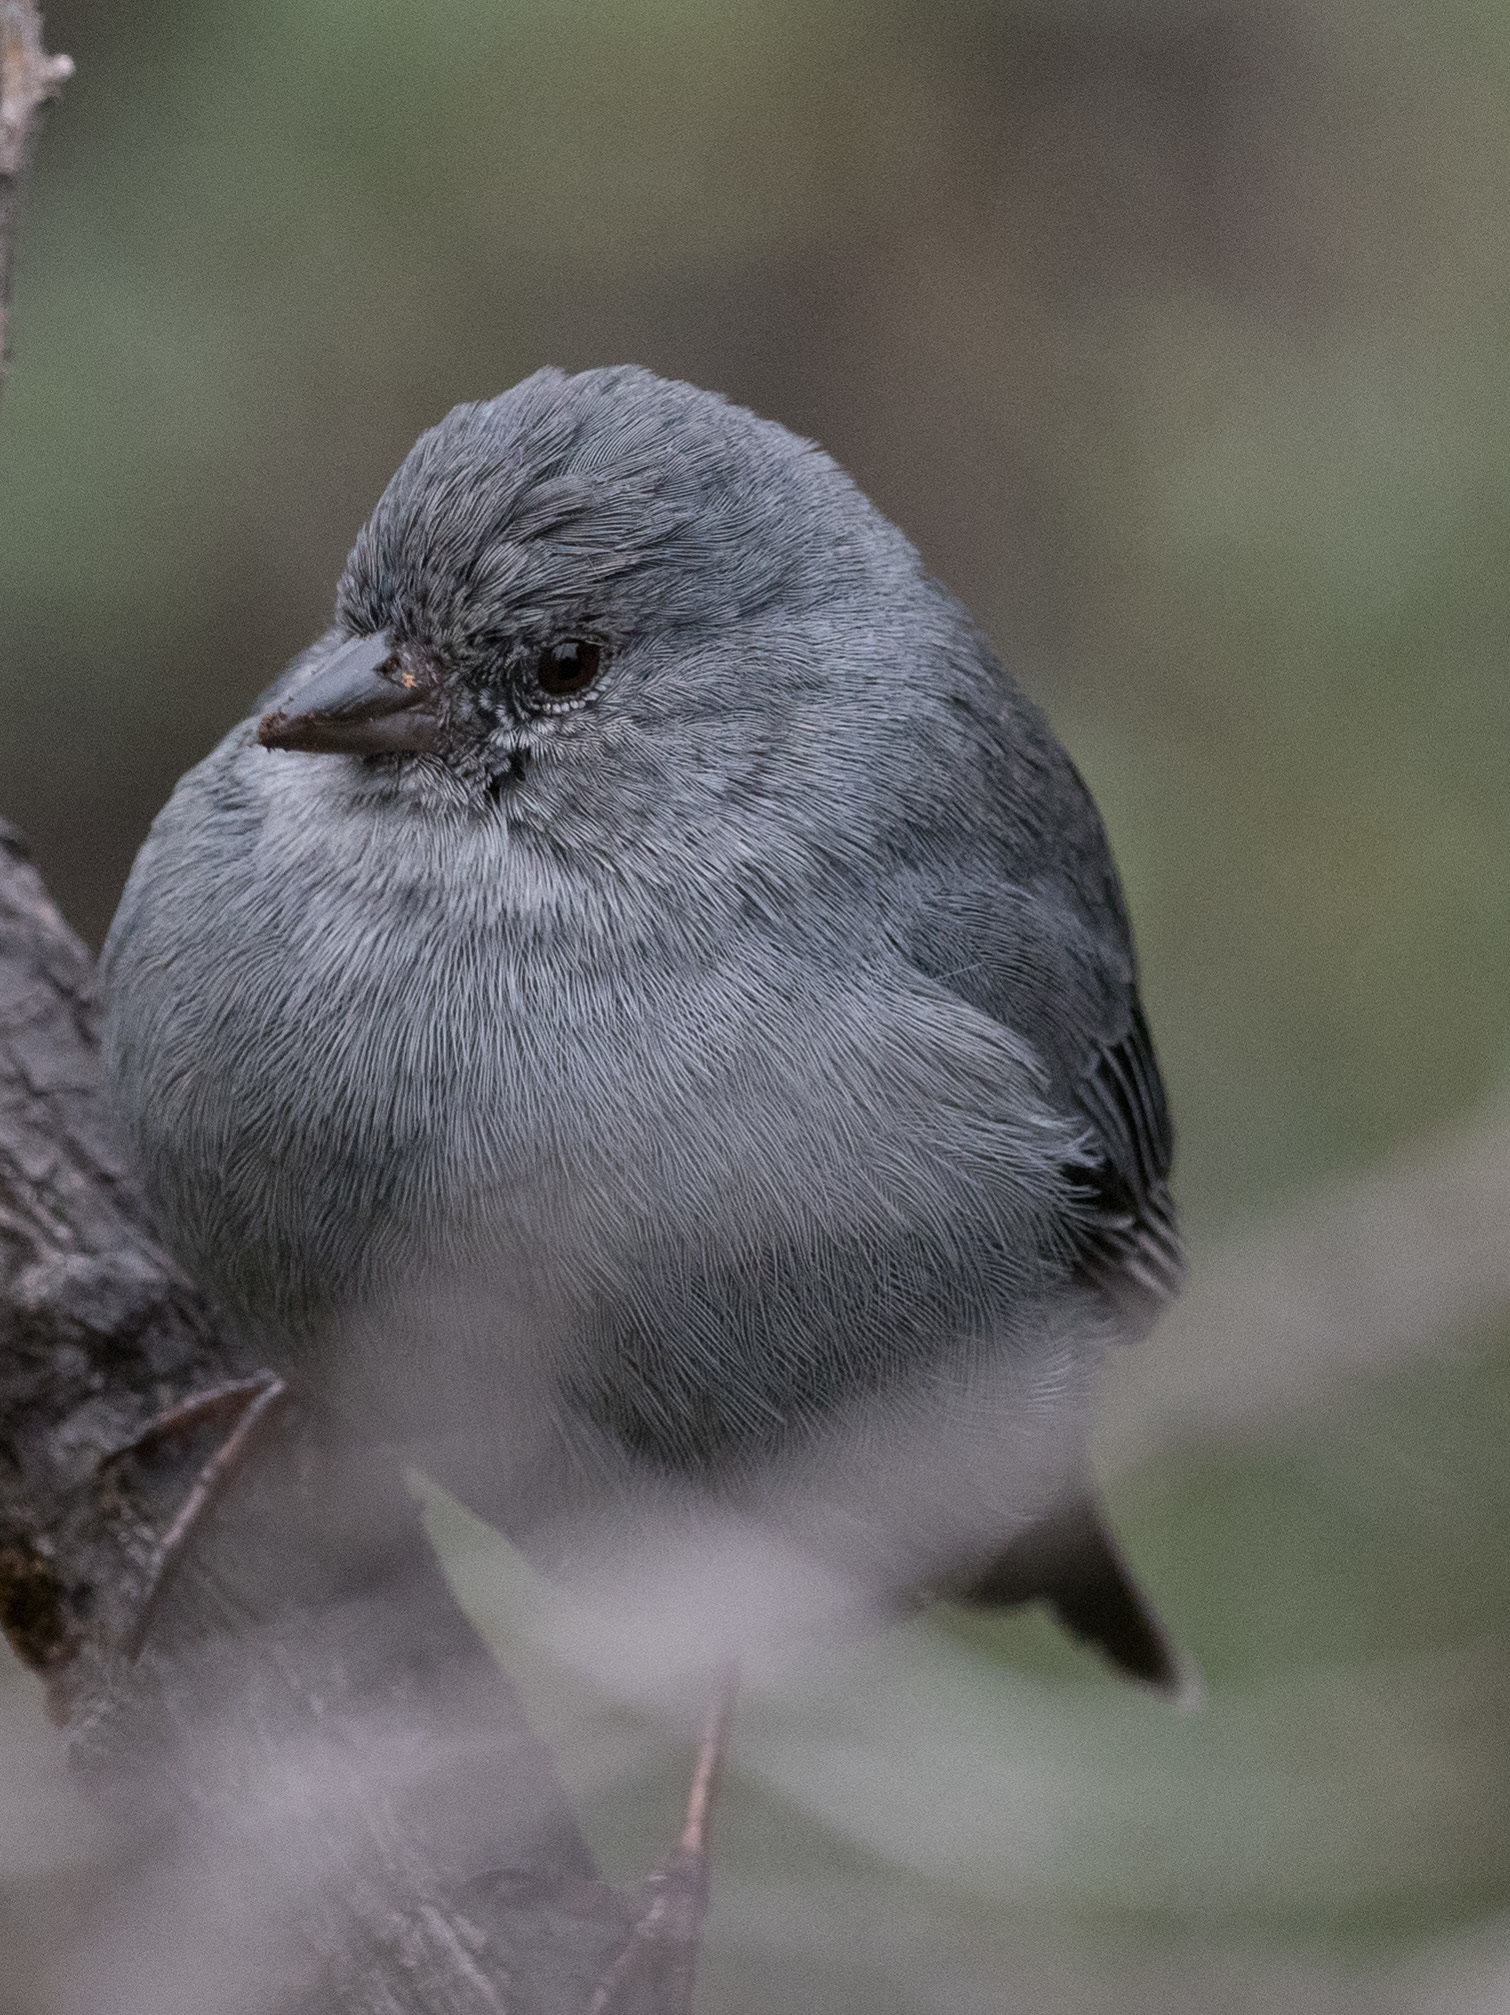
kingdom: Animalia
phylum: Chordata
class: Aves
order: Passeriformes
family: Thraupidae
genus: Geospizopsis
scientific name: Geospizopsis unicolor
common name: Plumbeous sierra-finch
